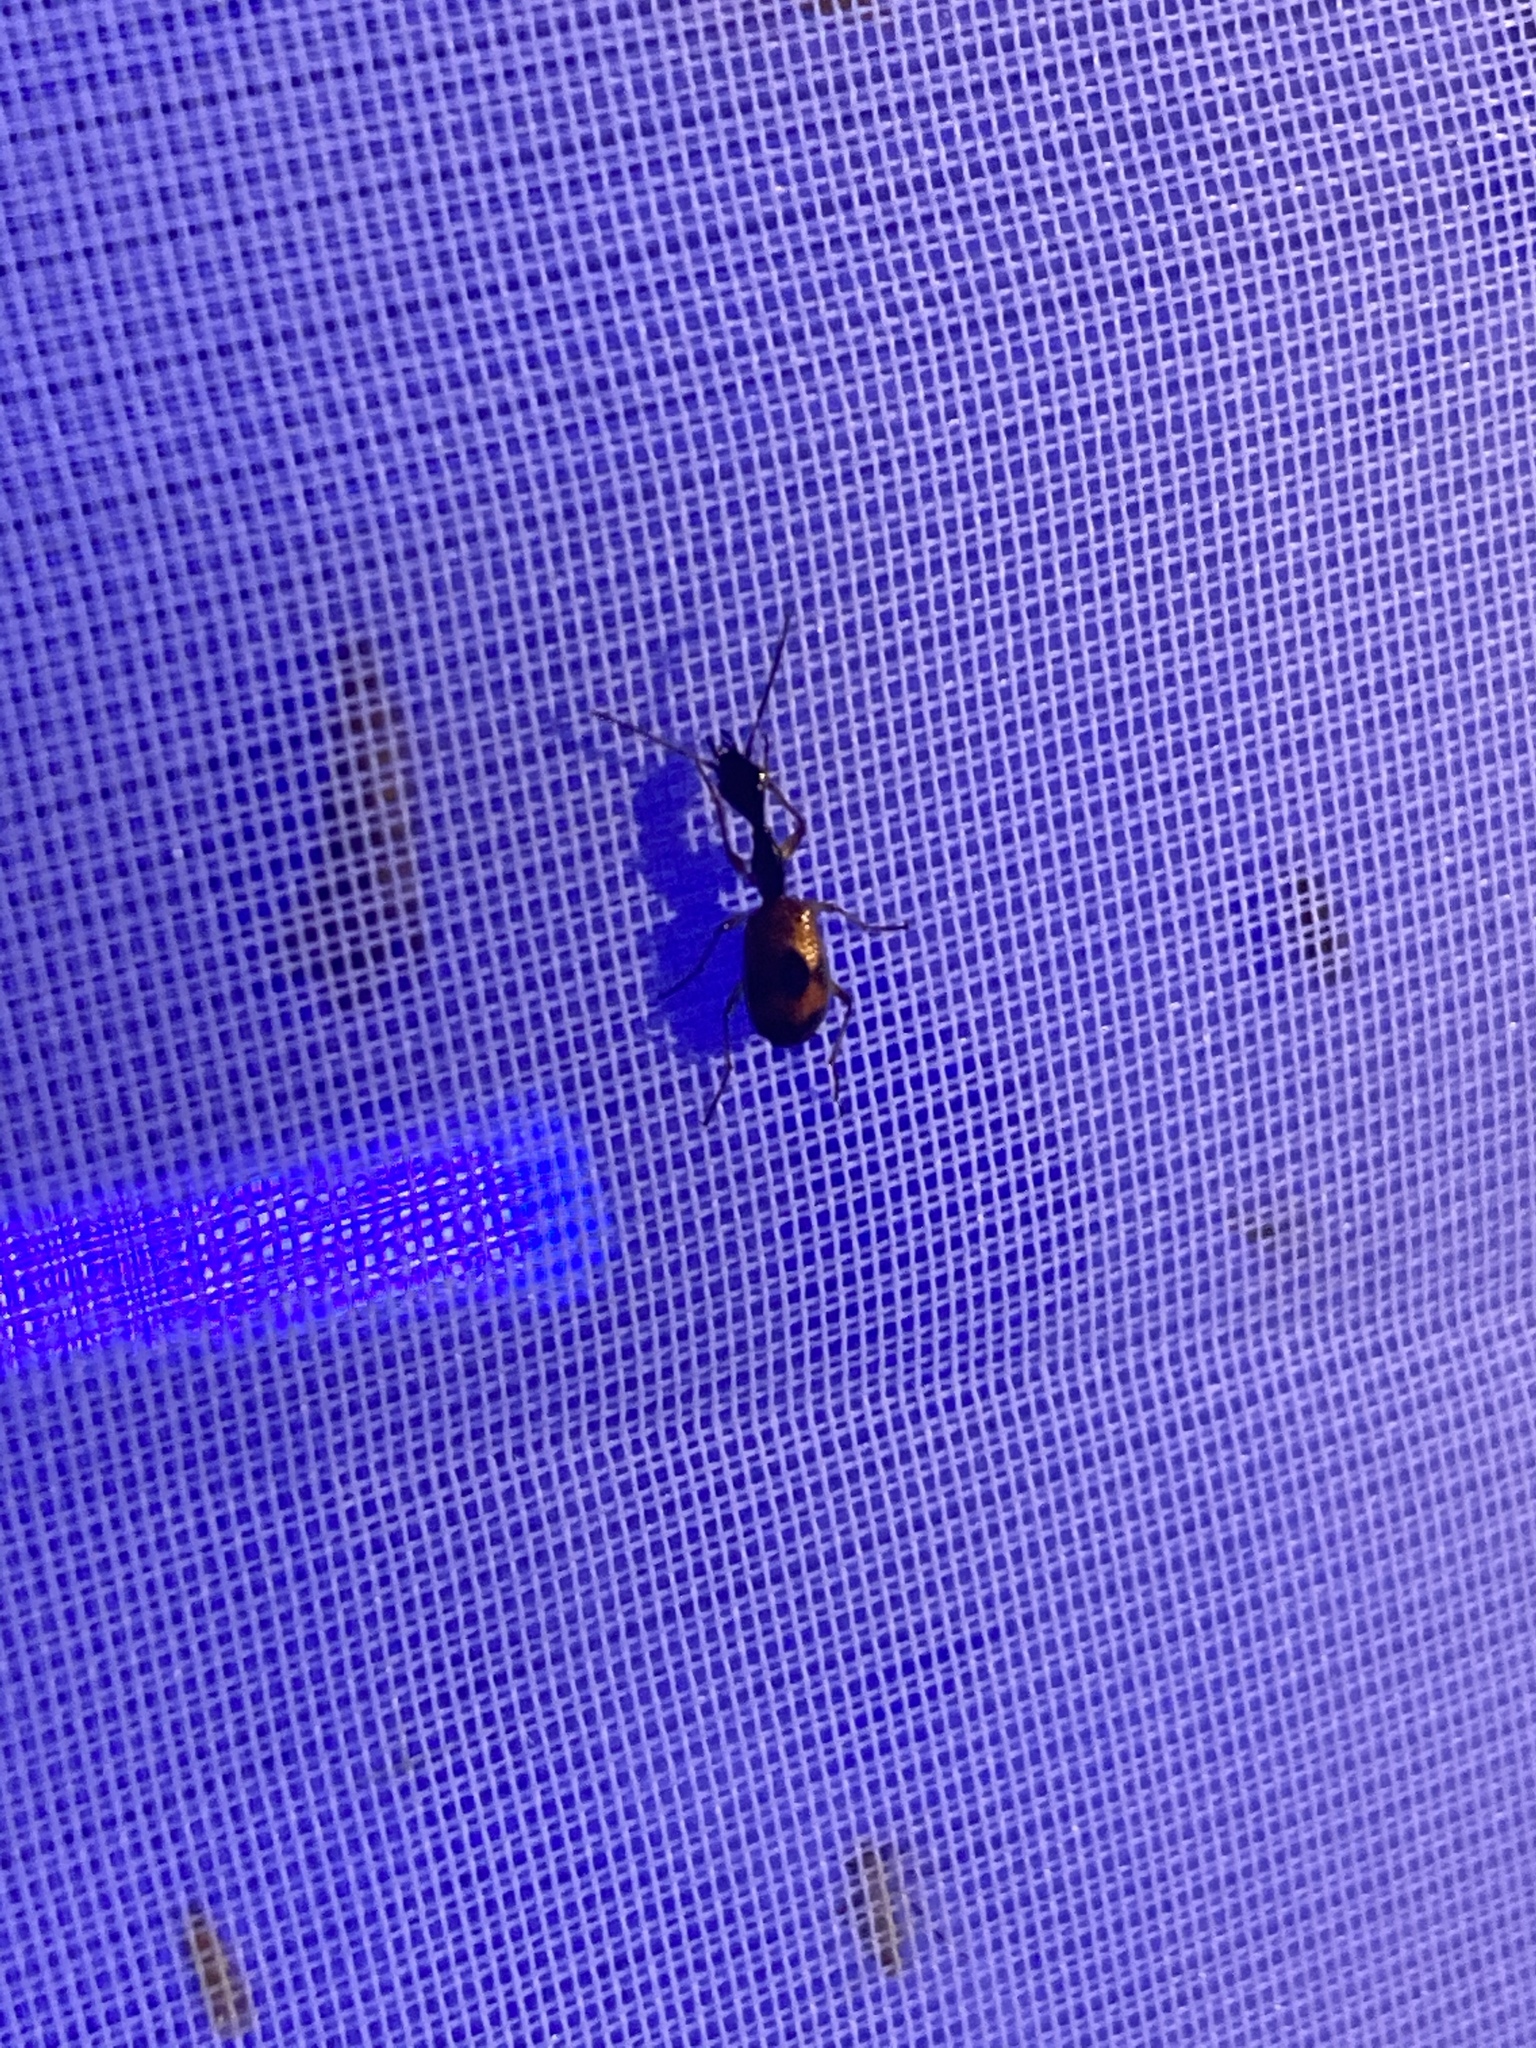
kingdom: Animalia
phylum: Arthropoda
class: Insecta
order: Coleoptera
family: Carabidae
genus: Colliuris
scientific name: Colliuris pensylvanica
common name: Long-necked ground beetle
